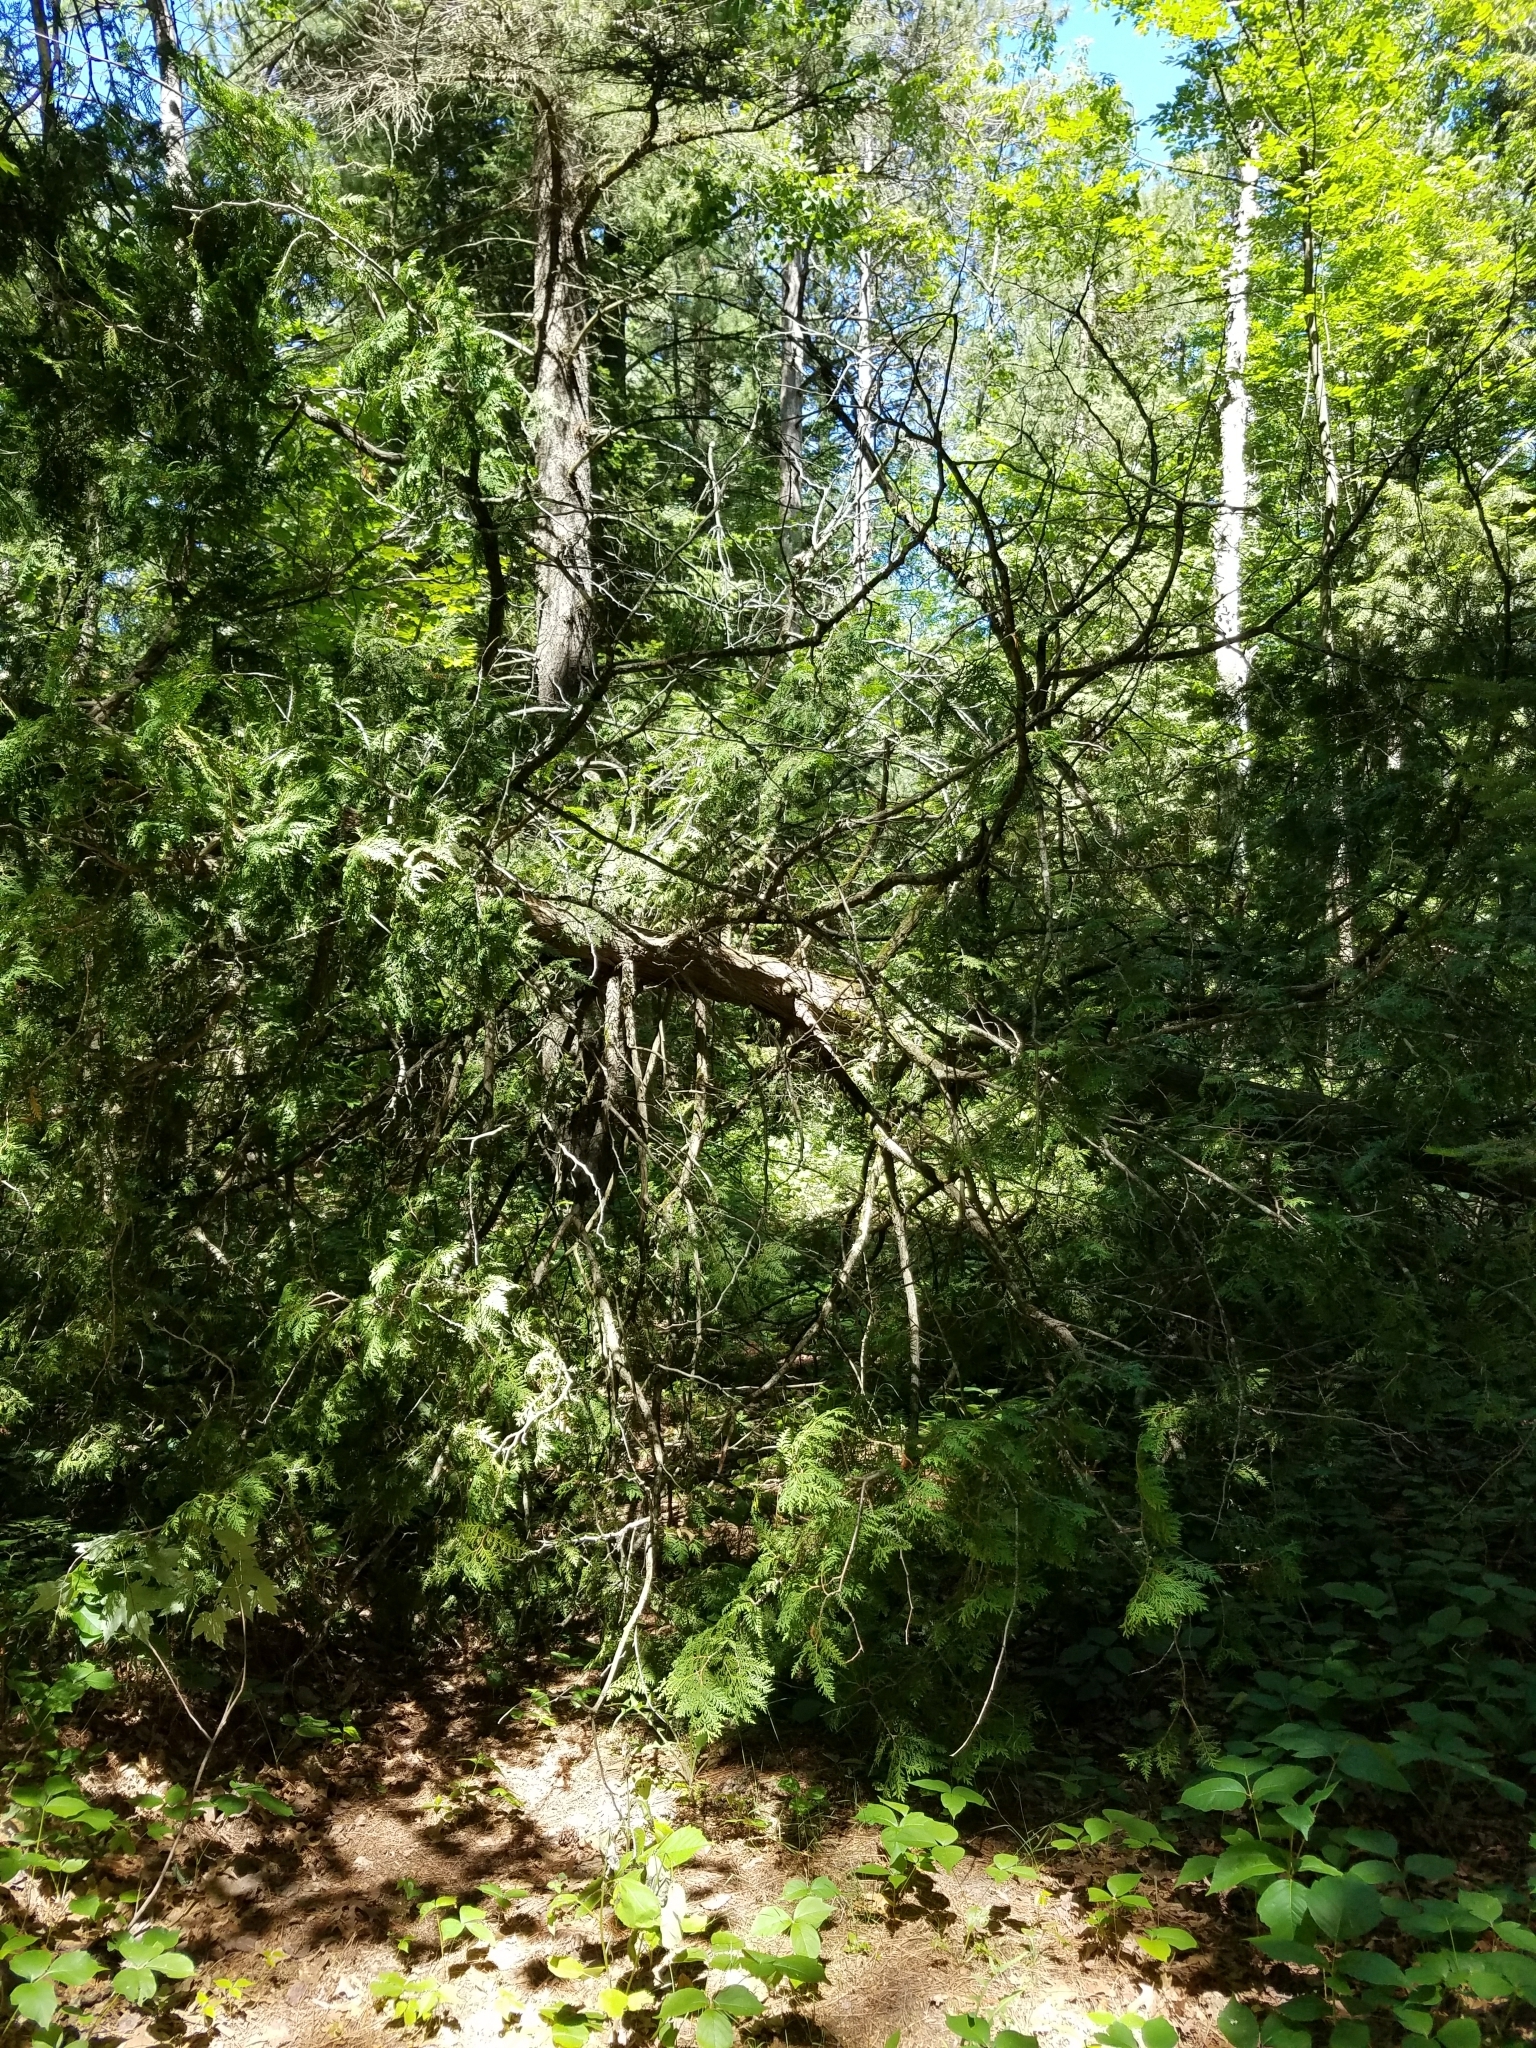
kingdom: Plantae
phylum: Tracheophyta
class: Pinopsida
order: Pinales
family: Cupressaceae
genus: Thuja
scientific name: Thuja occidentalis
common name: Northern white-cedar
